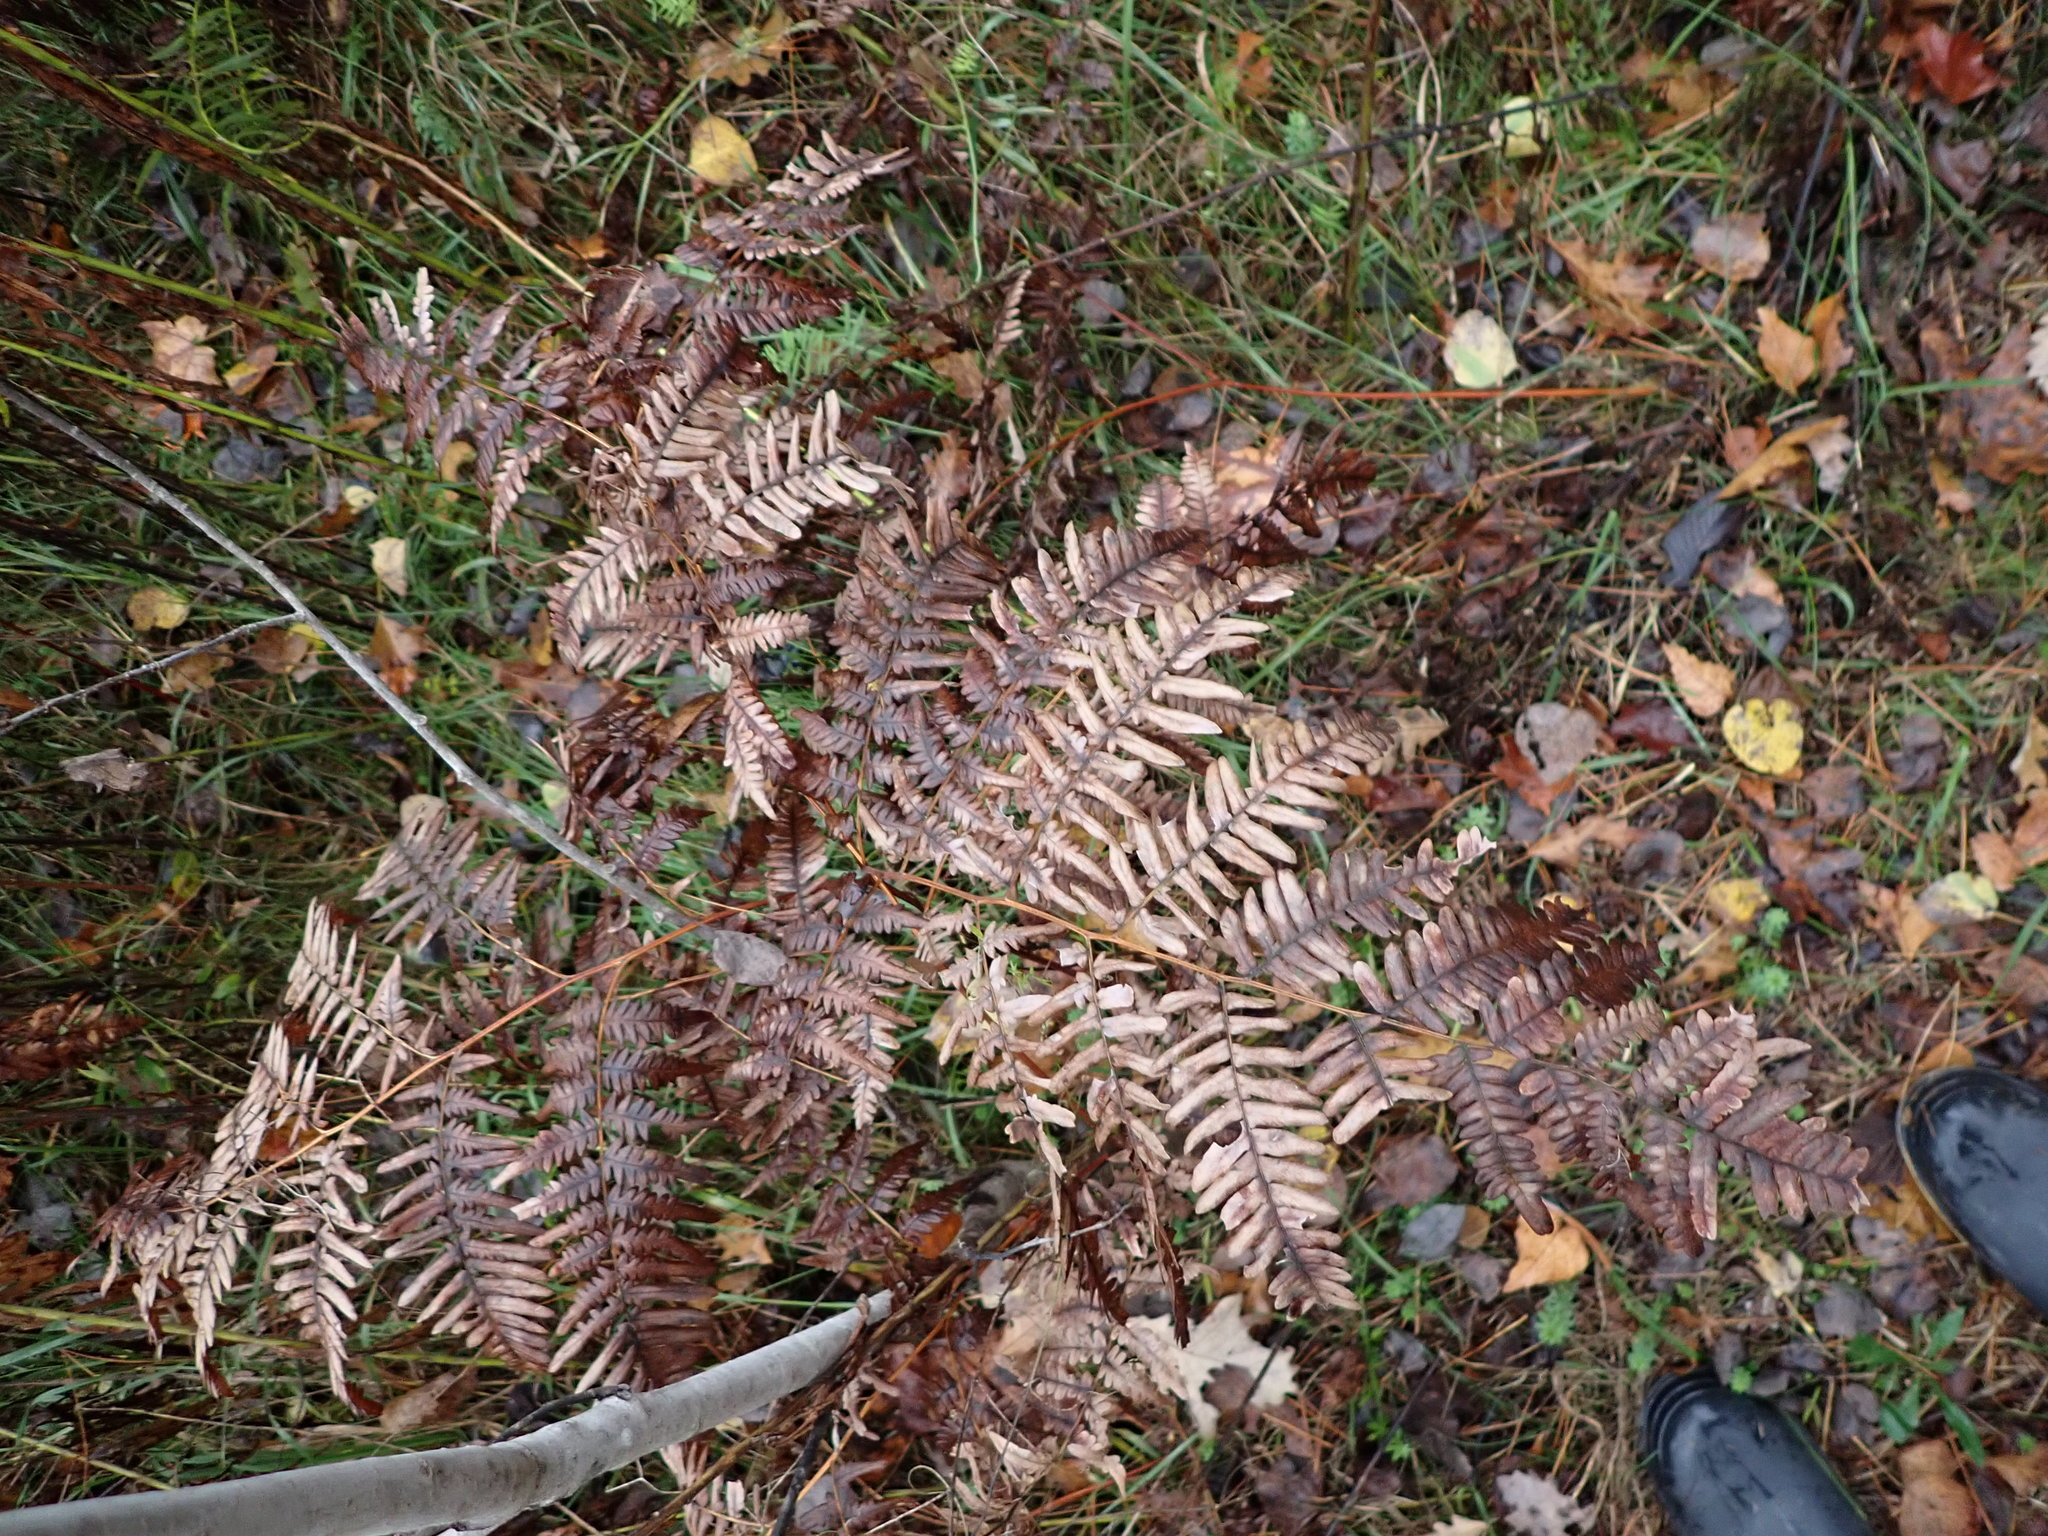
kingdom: Plantae
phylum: Tracheophyta
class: Polypodiopsida
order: Polypodiales
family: Dennstaedtiaceae
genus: Pteridium
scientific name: Pteridium aquilinum
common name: Bracken
